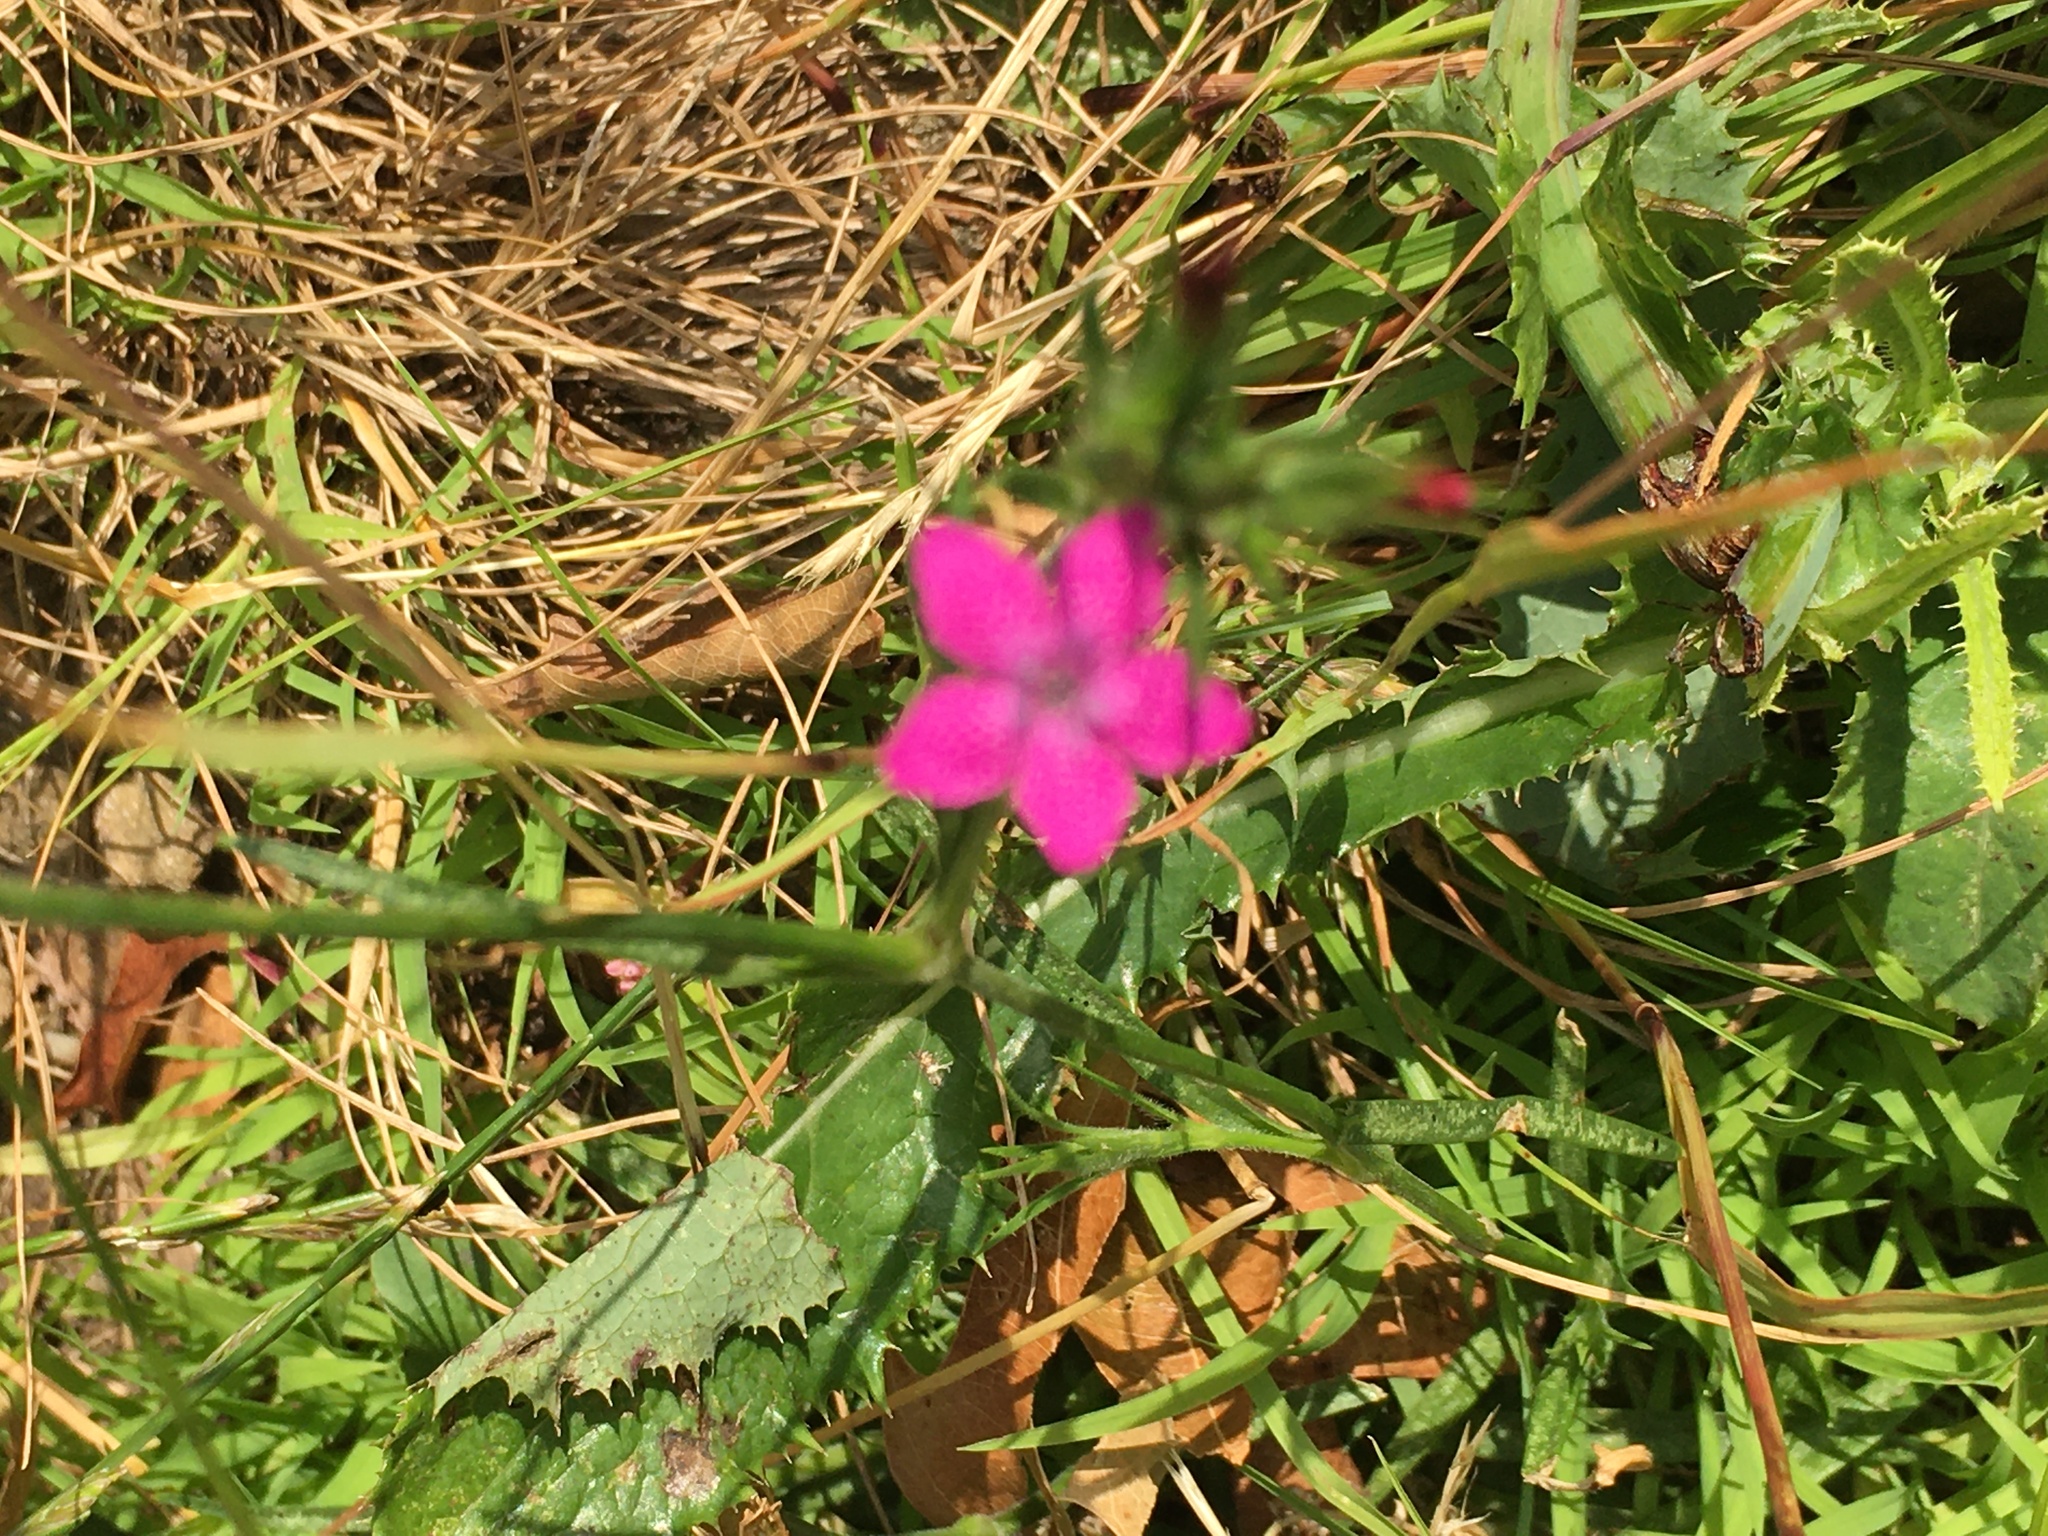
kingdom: Plantae
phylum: Tracheophyta
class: Magnoliopsida
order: Caryophyllales
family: Caryophyllaceae
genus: Dianthus
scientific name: Dianthus armeria
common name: Deptford pink
